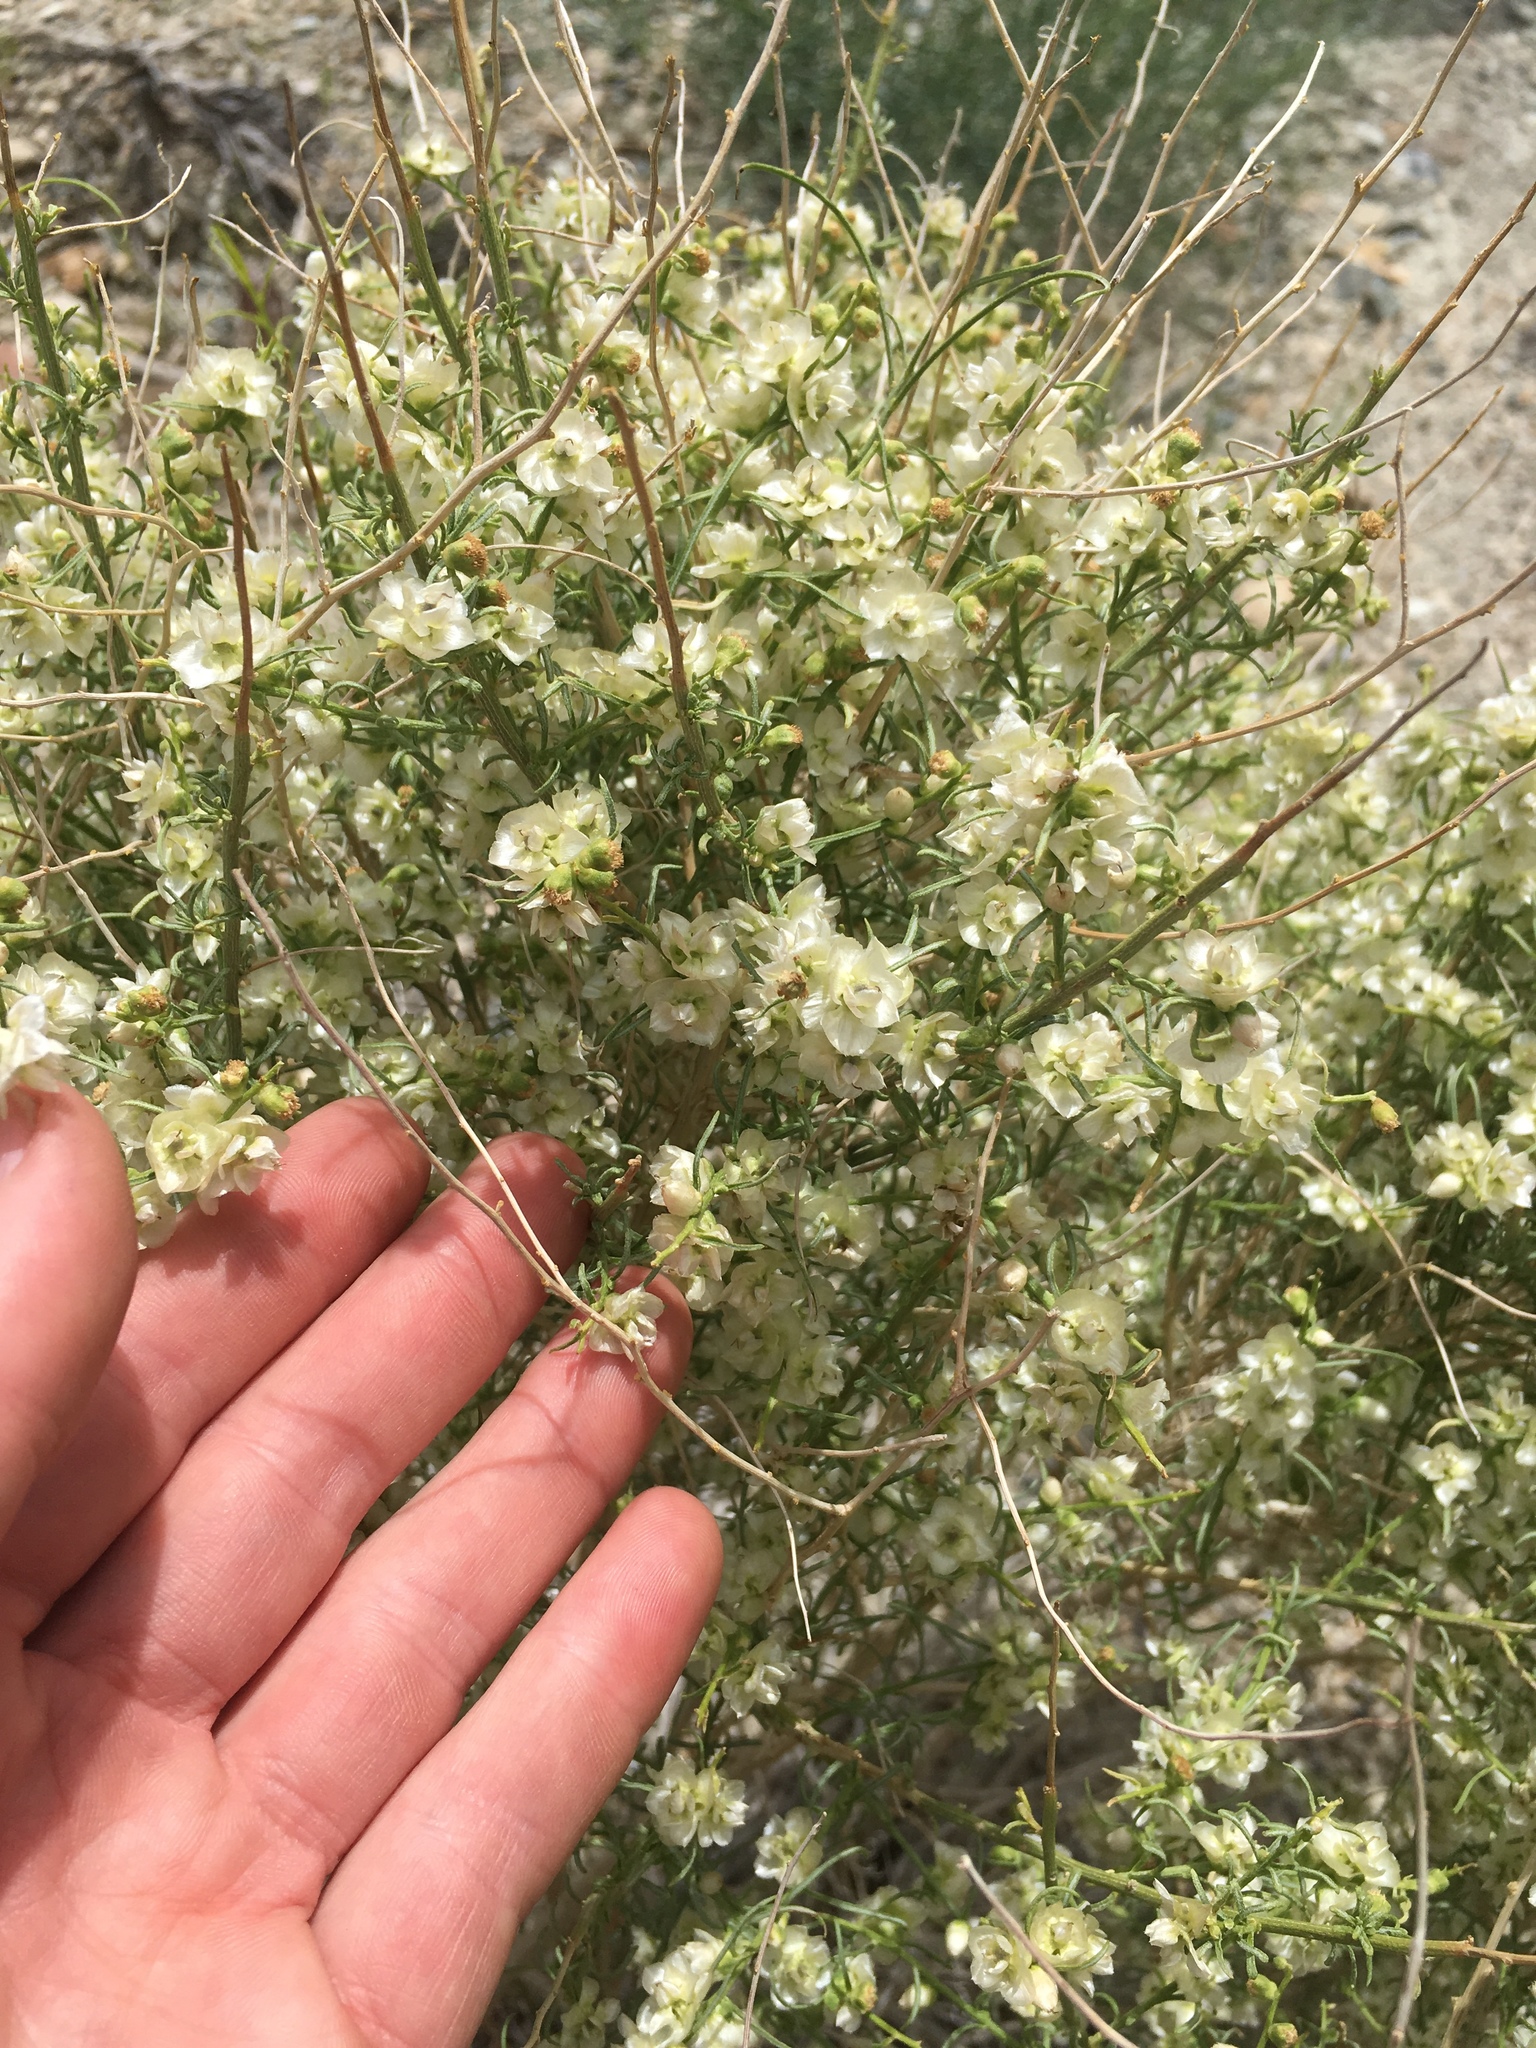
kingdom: Plantae
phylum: Tracheophyta
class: Magnoliopsida
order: Asterales
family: Asteraceae
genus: Ambrosia
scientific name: Ambrosia salsola
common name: Burrobrush
